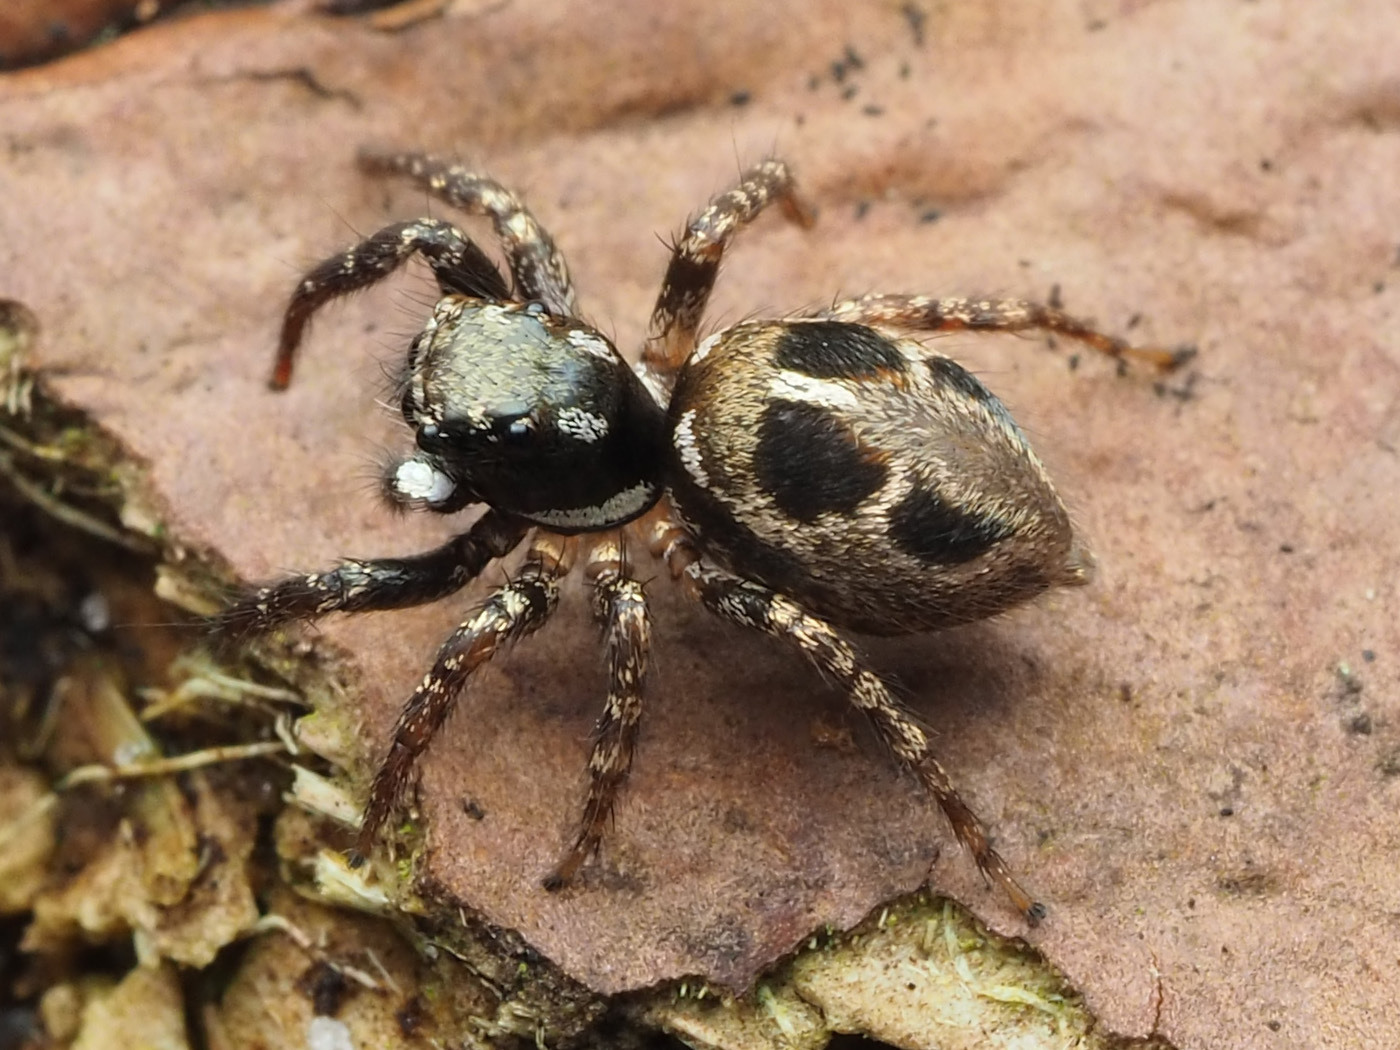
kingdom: Animalia
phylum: Arthropoda
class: Arachnida
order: Araneae
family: Salticidae
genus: Anasaitis
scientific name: Anasaitis canosa
